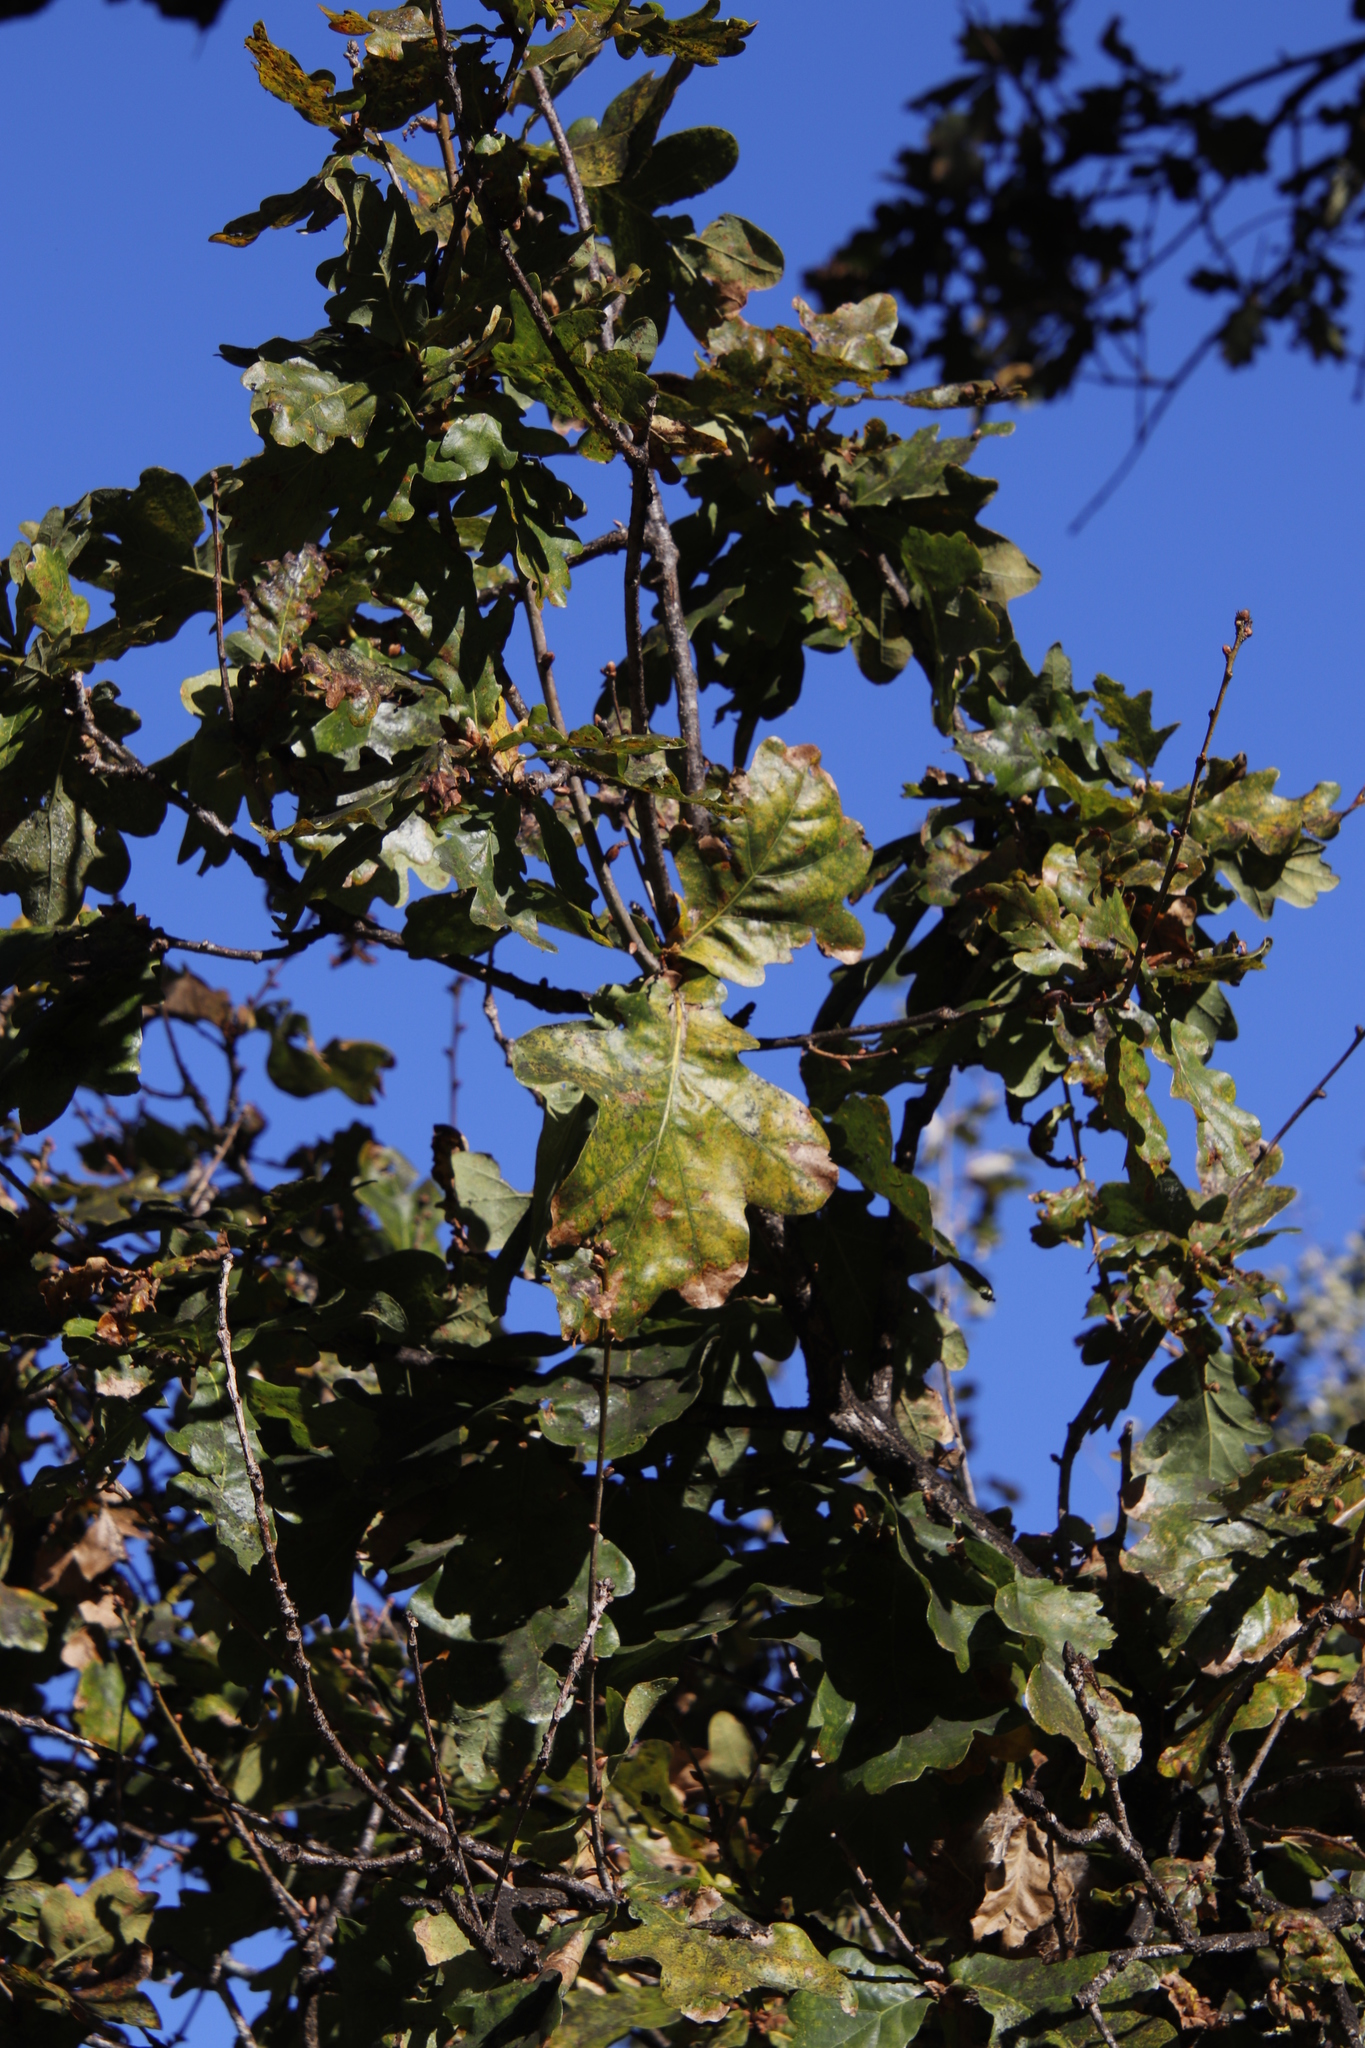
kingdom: Plantae
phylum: Tracheophyta
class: Magnoliopsida
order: Fagales
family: Fagaceae
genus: Quercus
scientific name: Quercus robur
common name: Pedunculate oak
